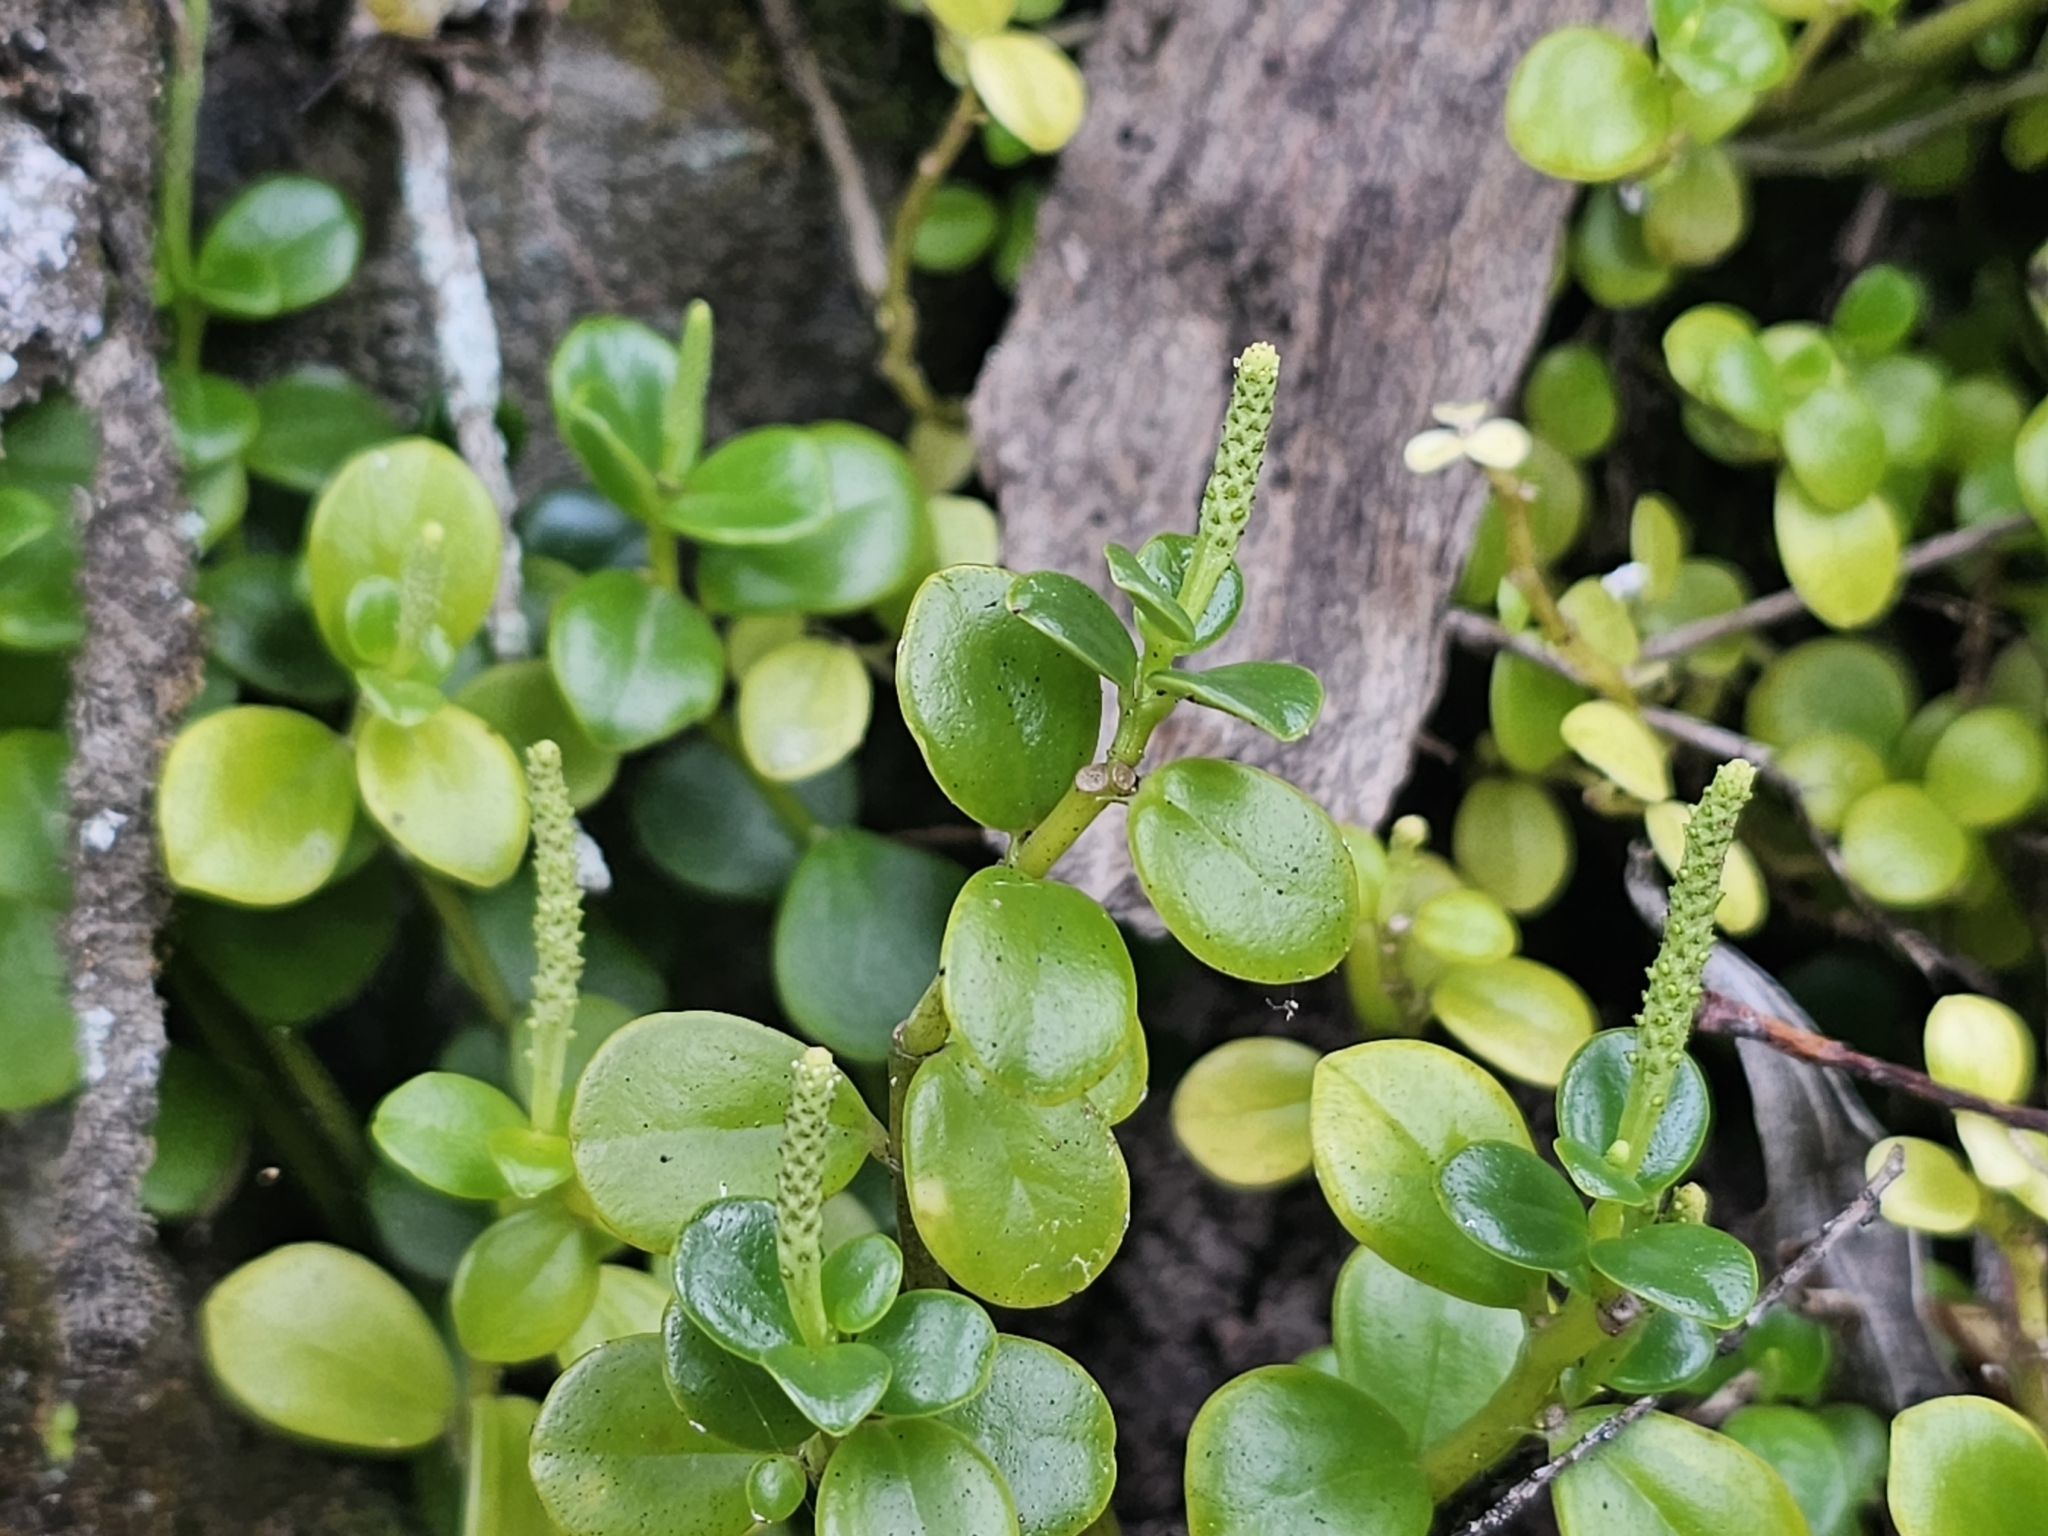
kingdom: Plantae
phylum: Tracheophyta
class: Magnoliopsida
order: Piperales
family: Piperaceae
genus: Peperomia
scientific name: Peperomia urvilleana
